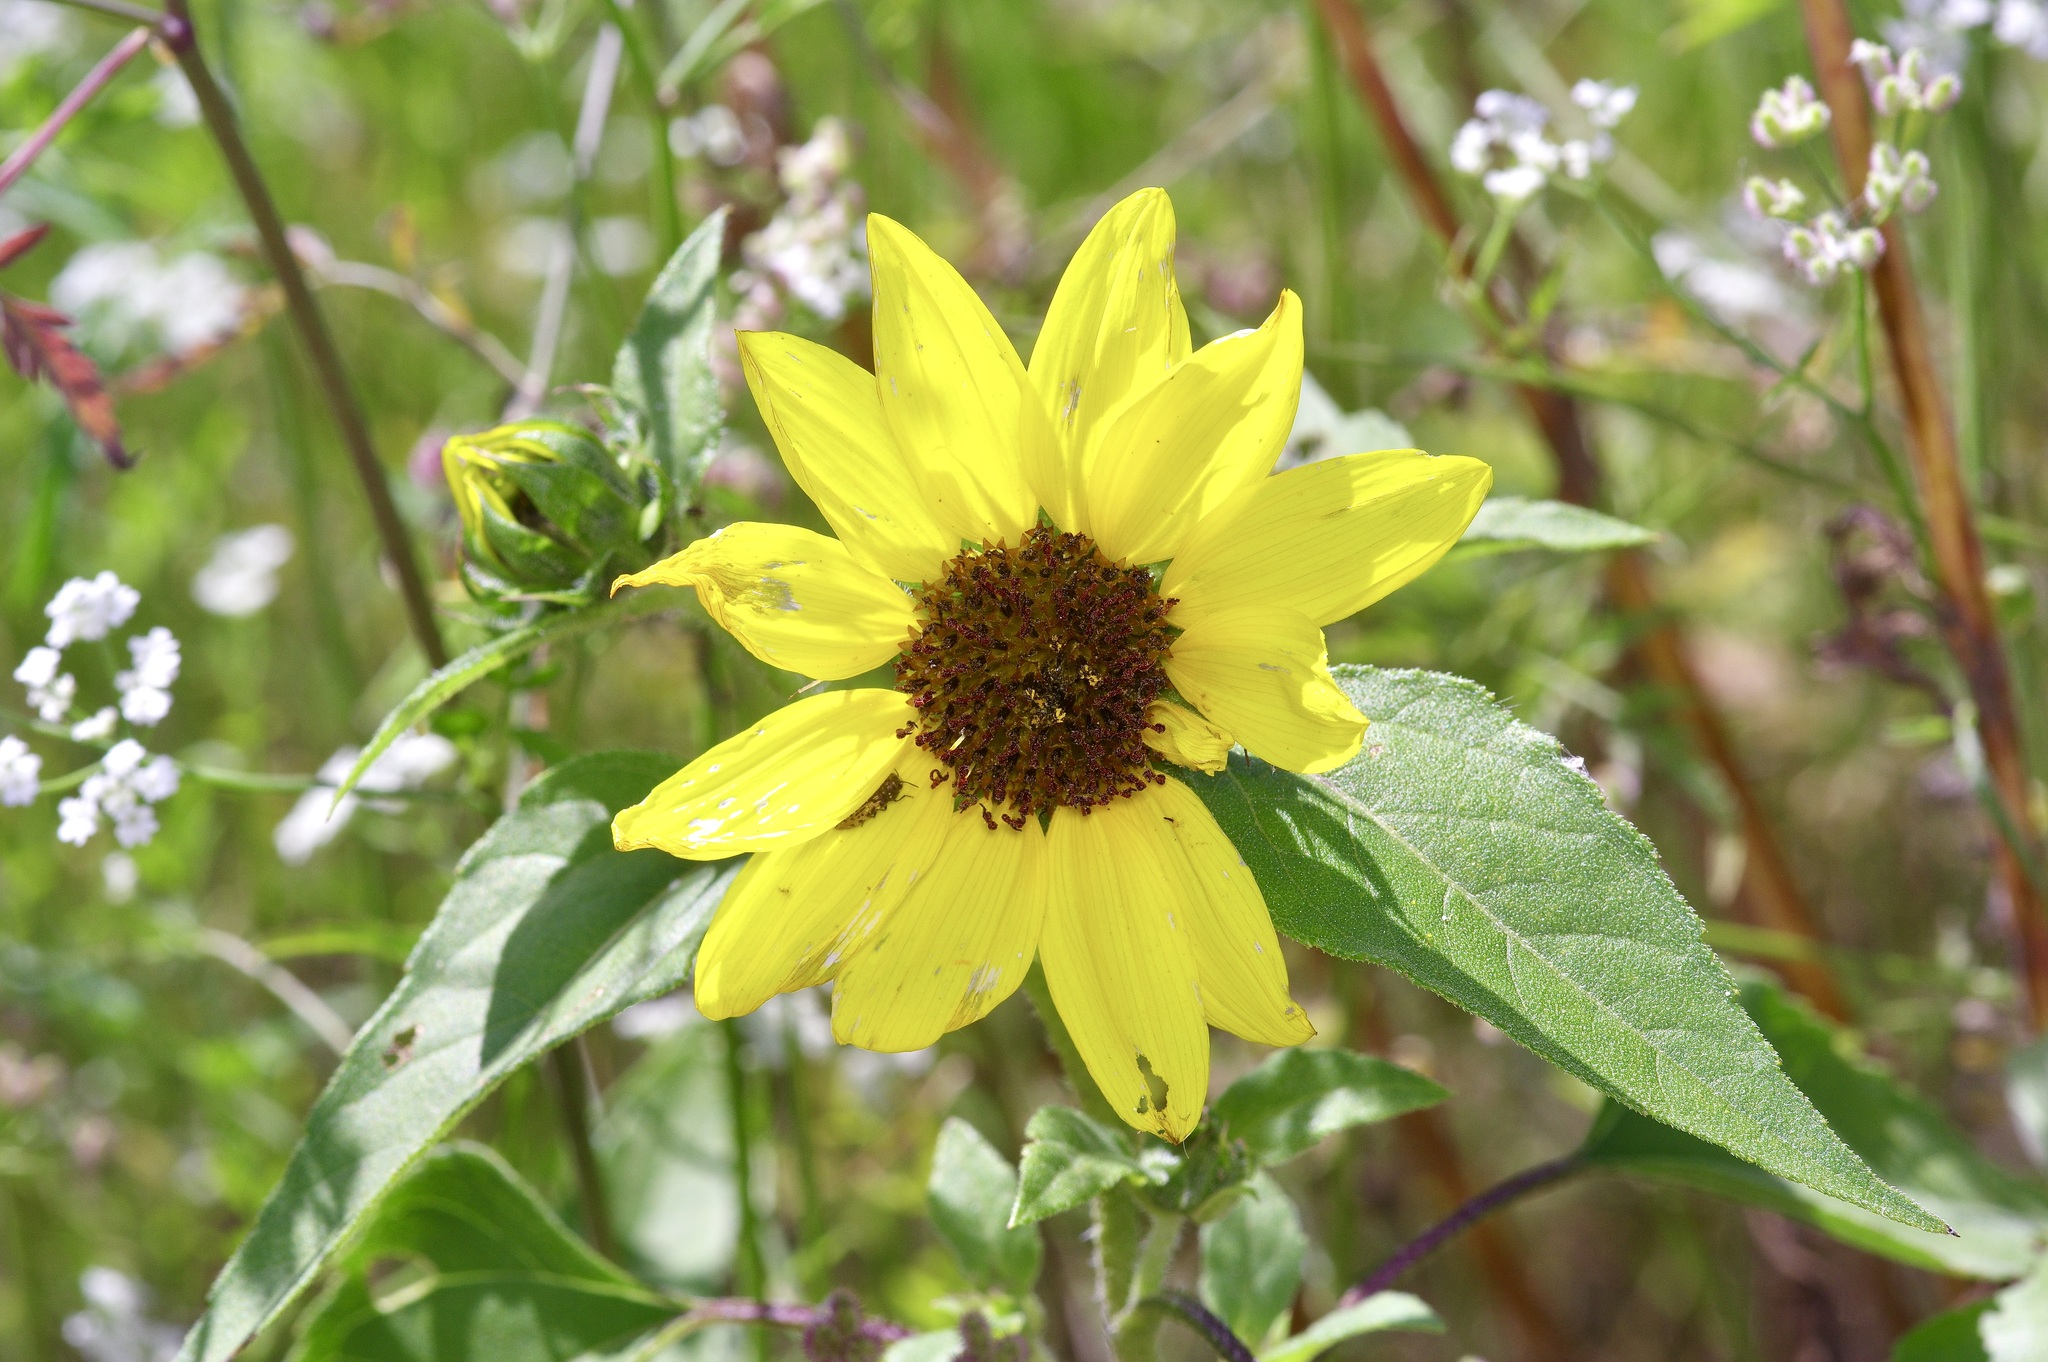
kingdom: Plantae
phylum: Tracheophyta
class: Magnoliopsida
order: Asterales
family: Asteraceae
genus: Helianthus
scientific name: Helianthus annuus
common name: Sunflower
